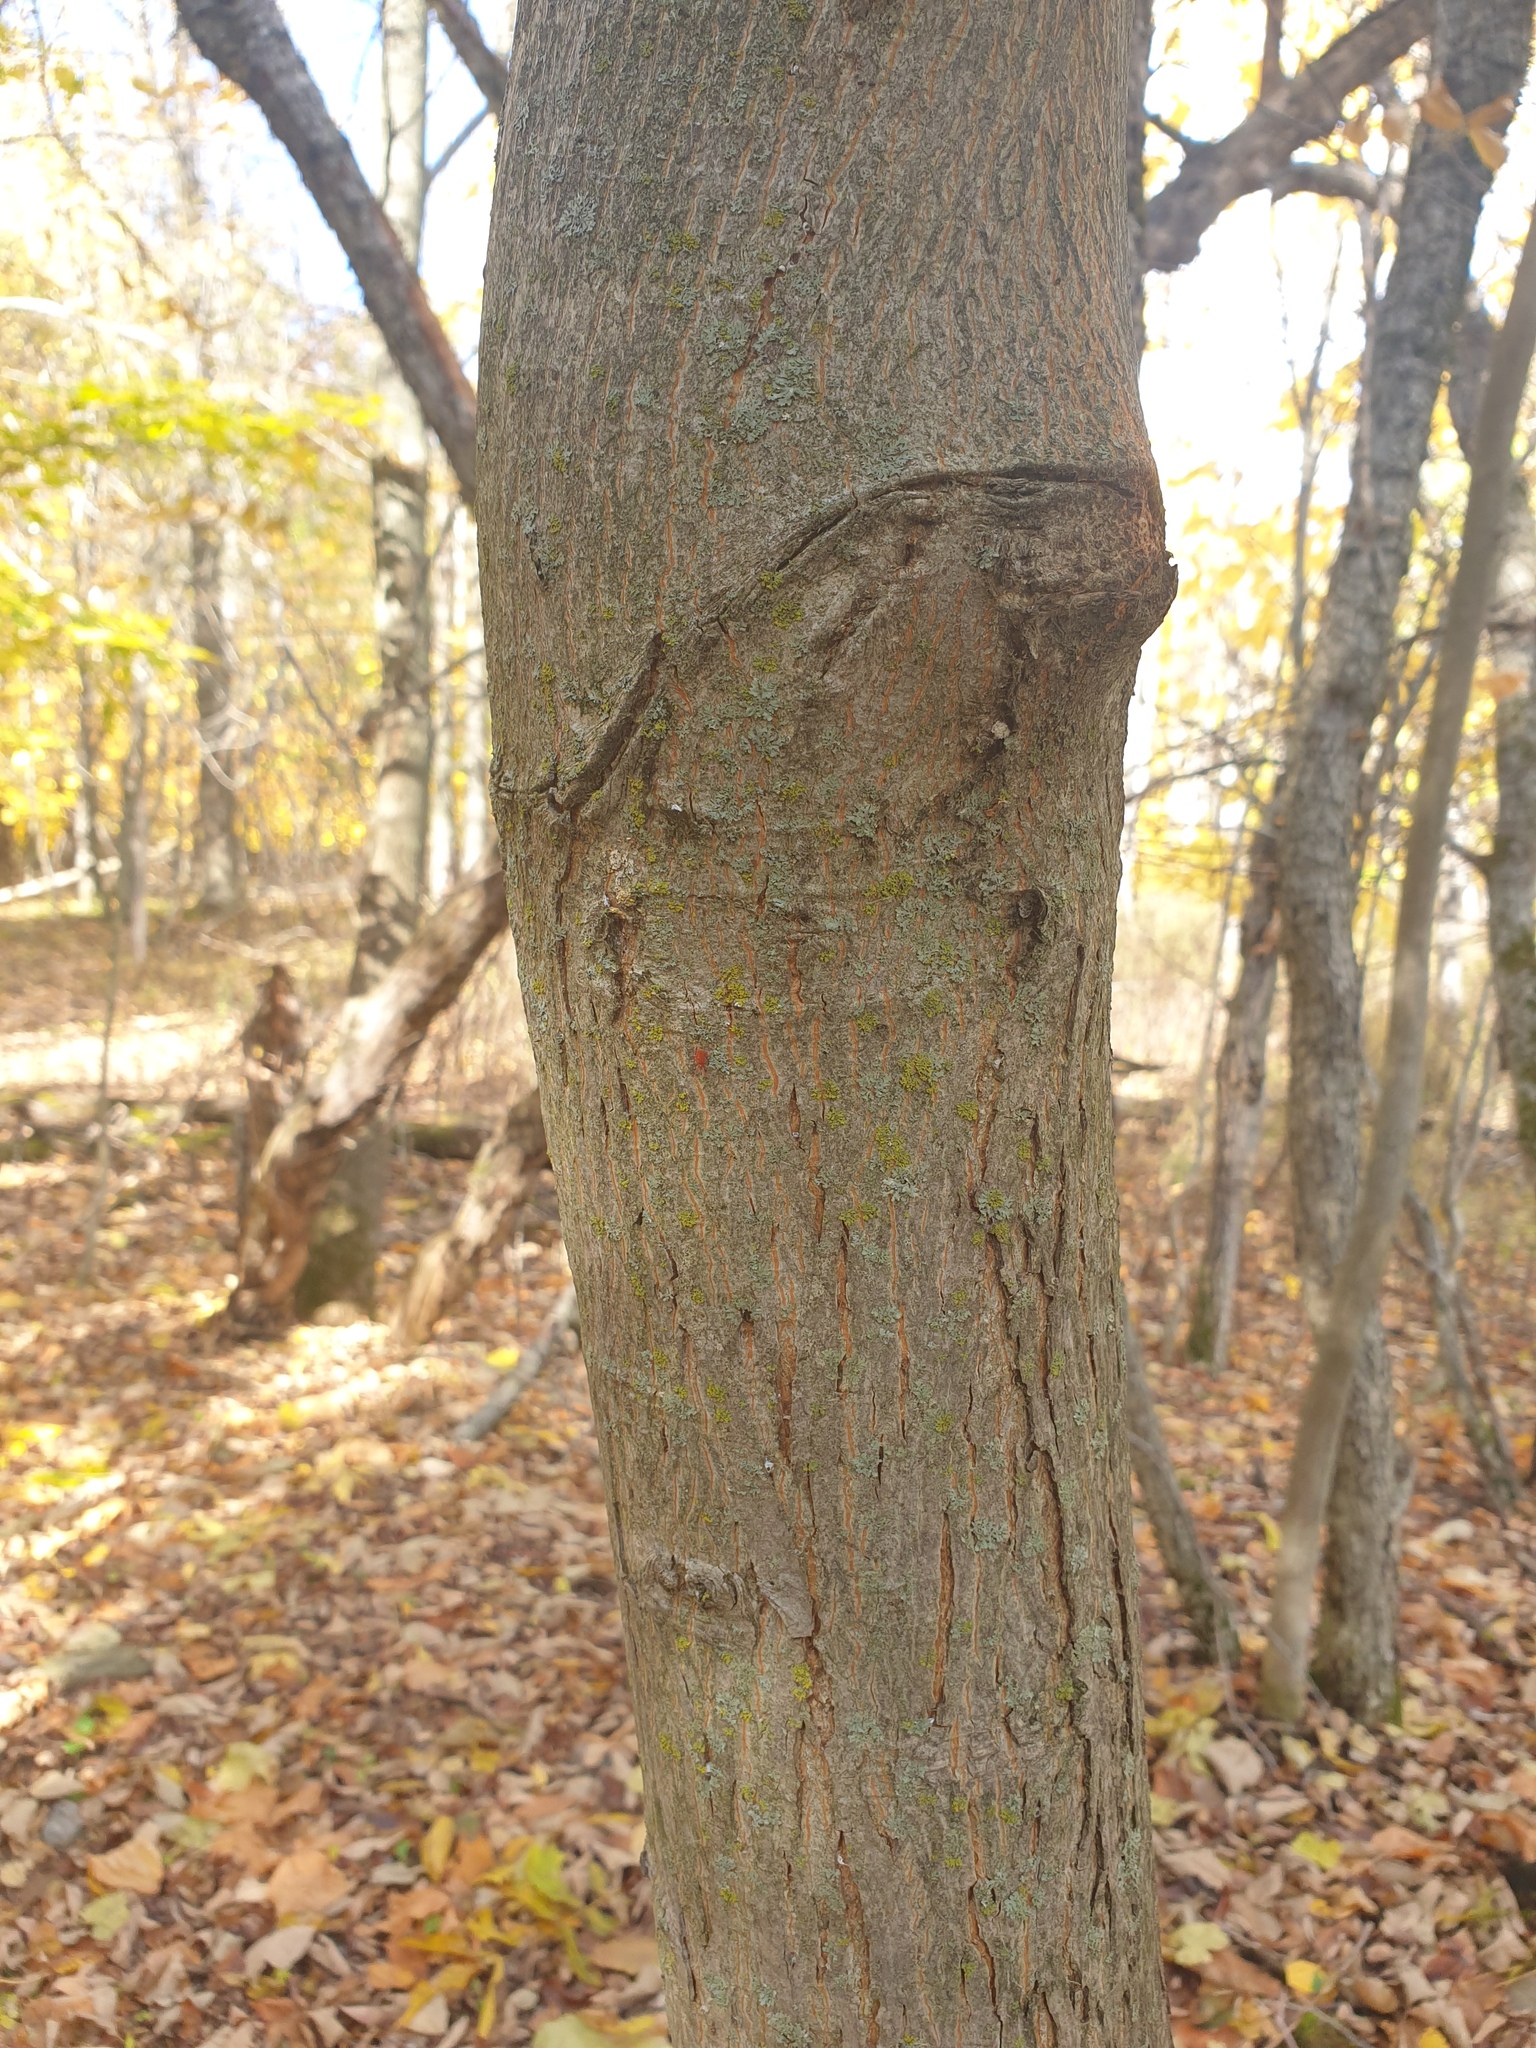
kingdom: Plantae
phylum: Tracheophyta
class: Magnoliopsida
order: Fagales
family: Juglandaceae
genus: Carya
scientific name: Carya cordiformis
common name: Bitternut hickory
